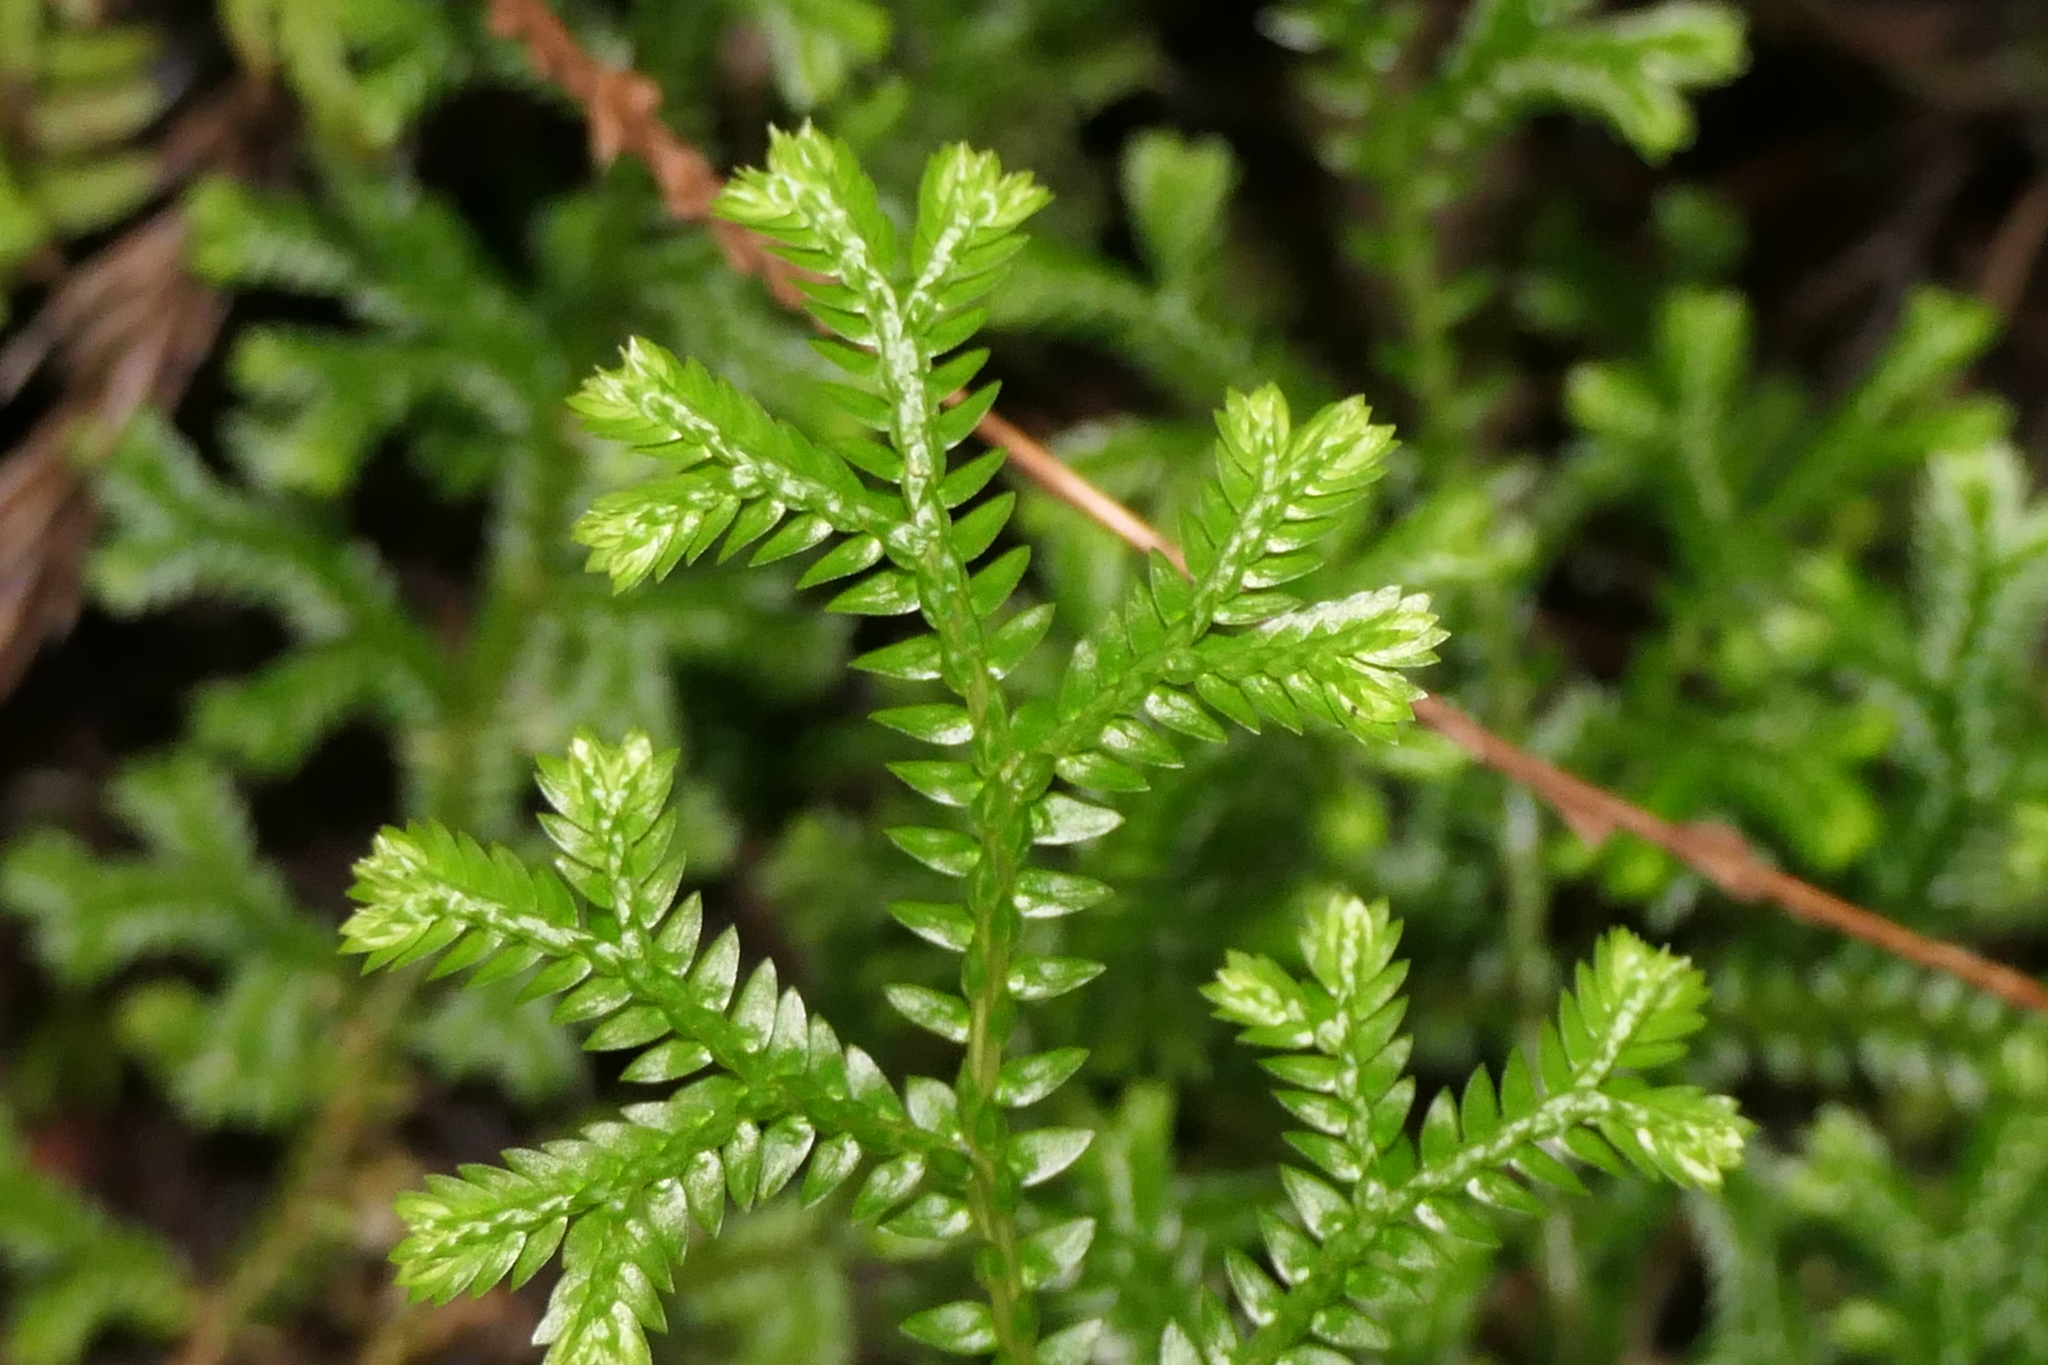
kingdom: Plantae
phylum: Tracheophyta
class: Lycopodiopsida
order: Selaginellales
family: Selaginellaceae
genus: Selaginella
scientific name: Selaginella kraussiana
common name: Krauss' spikemoss
